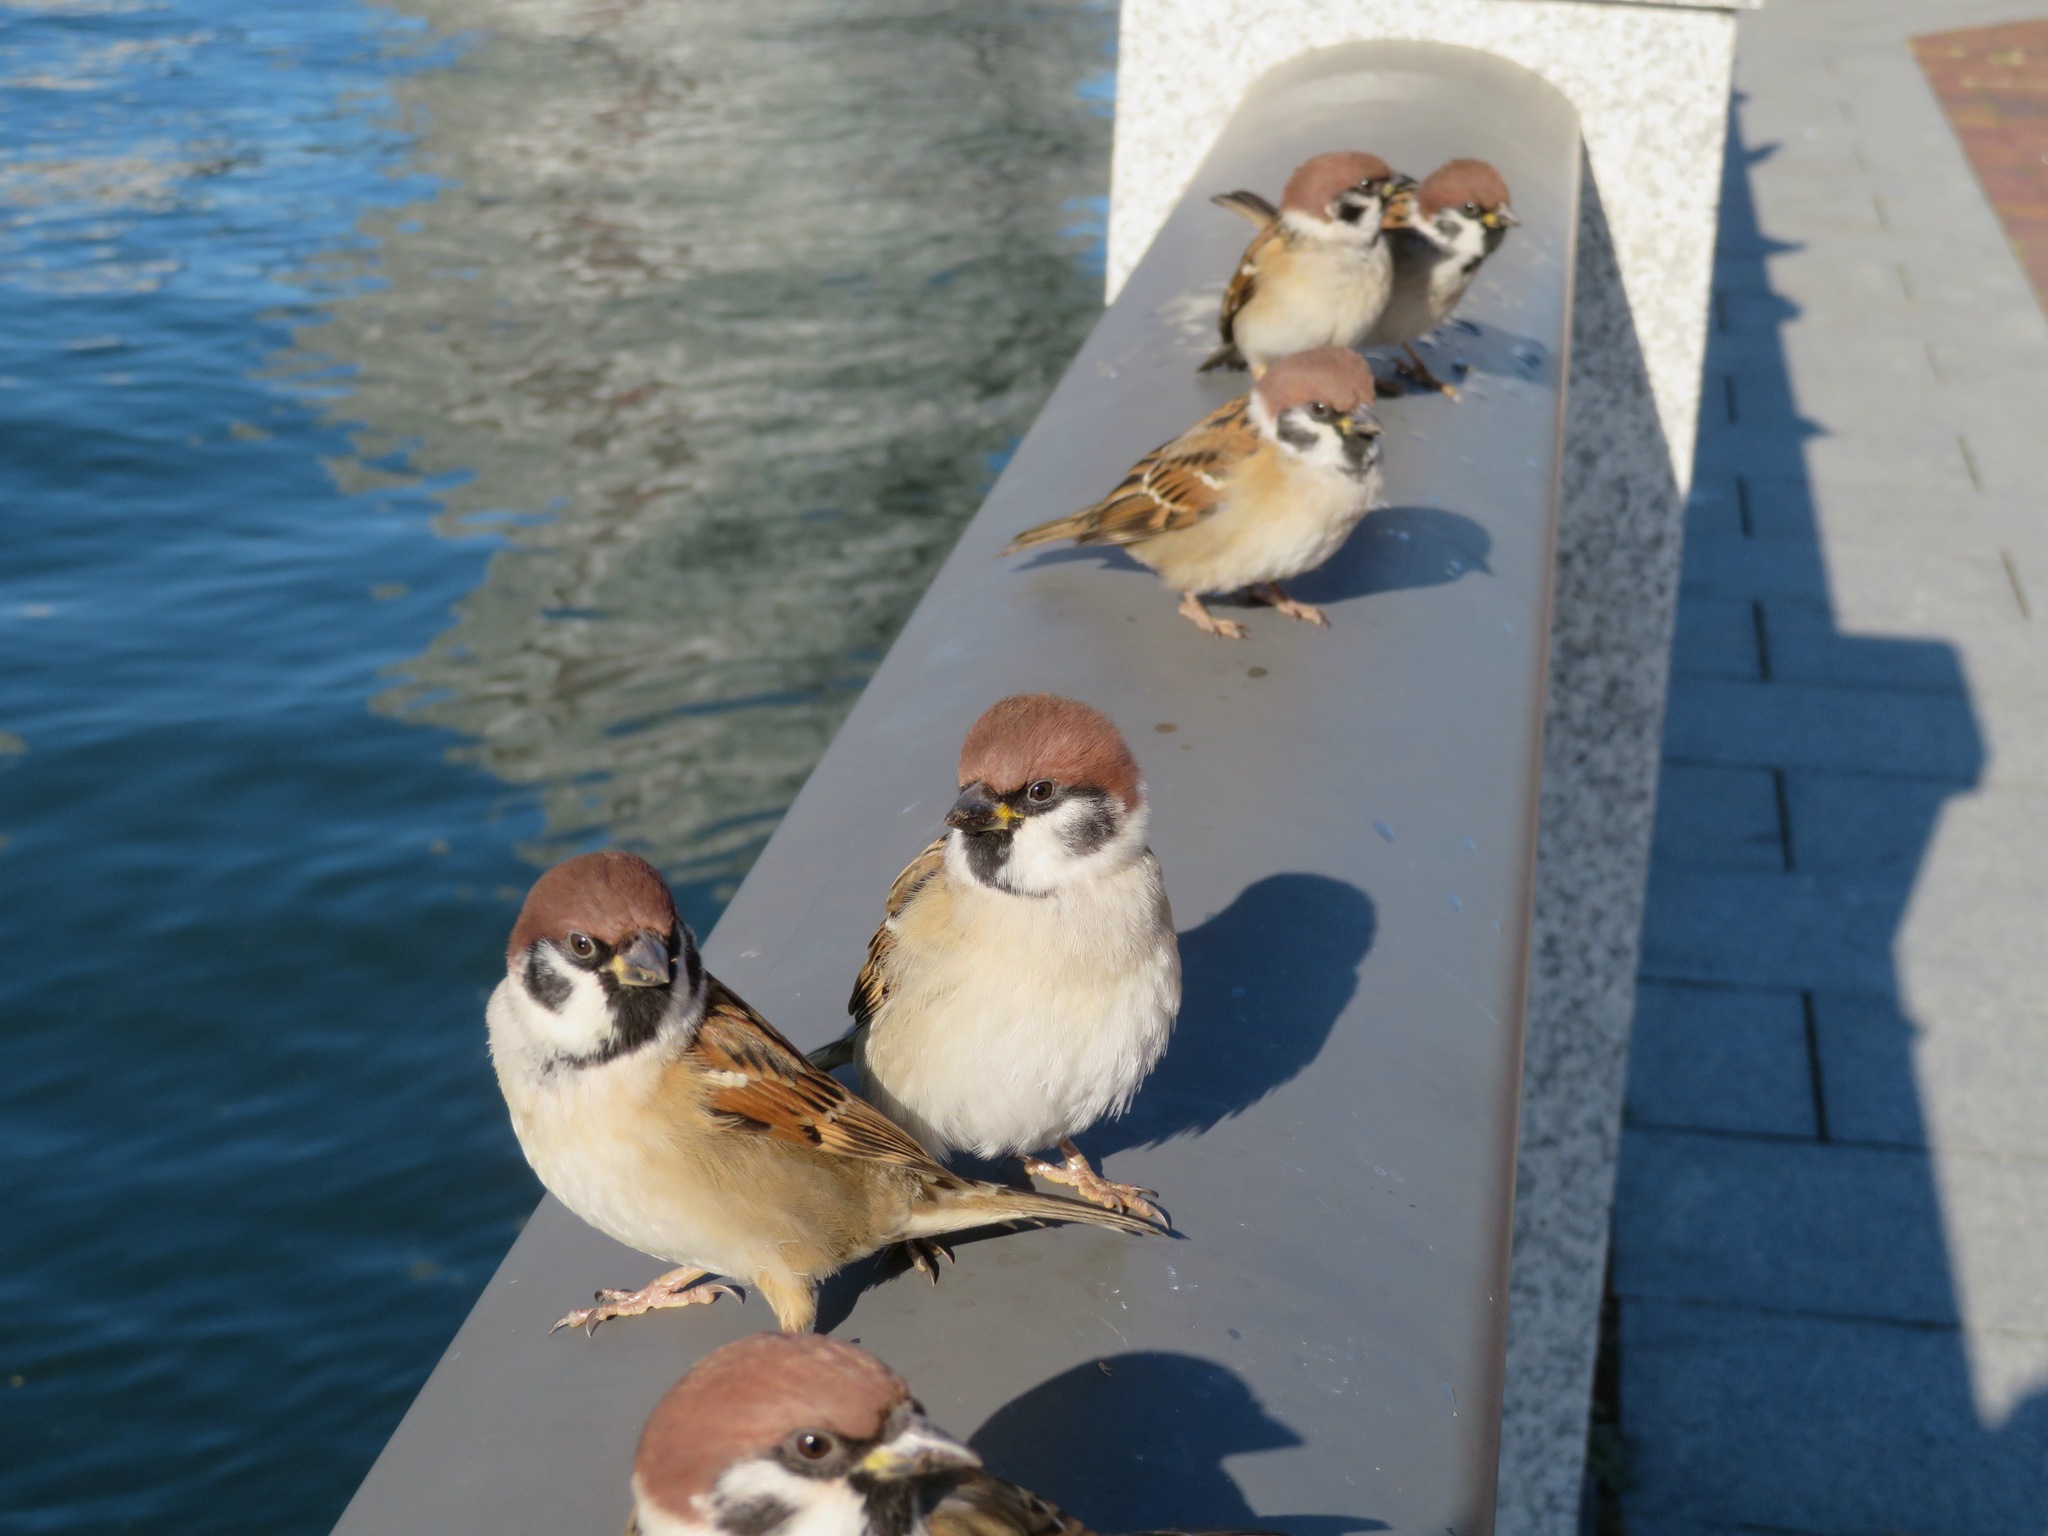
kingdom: Animalia
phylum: Chordata
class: Aves
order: Passeriformes
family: Passeridae
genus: Passer
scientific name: Passer montanus
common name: Eurasian tree sparrow
